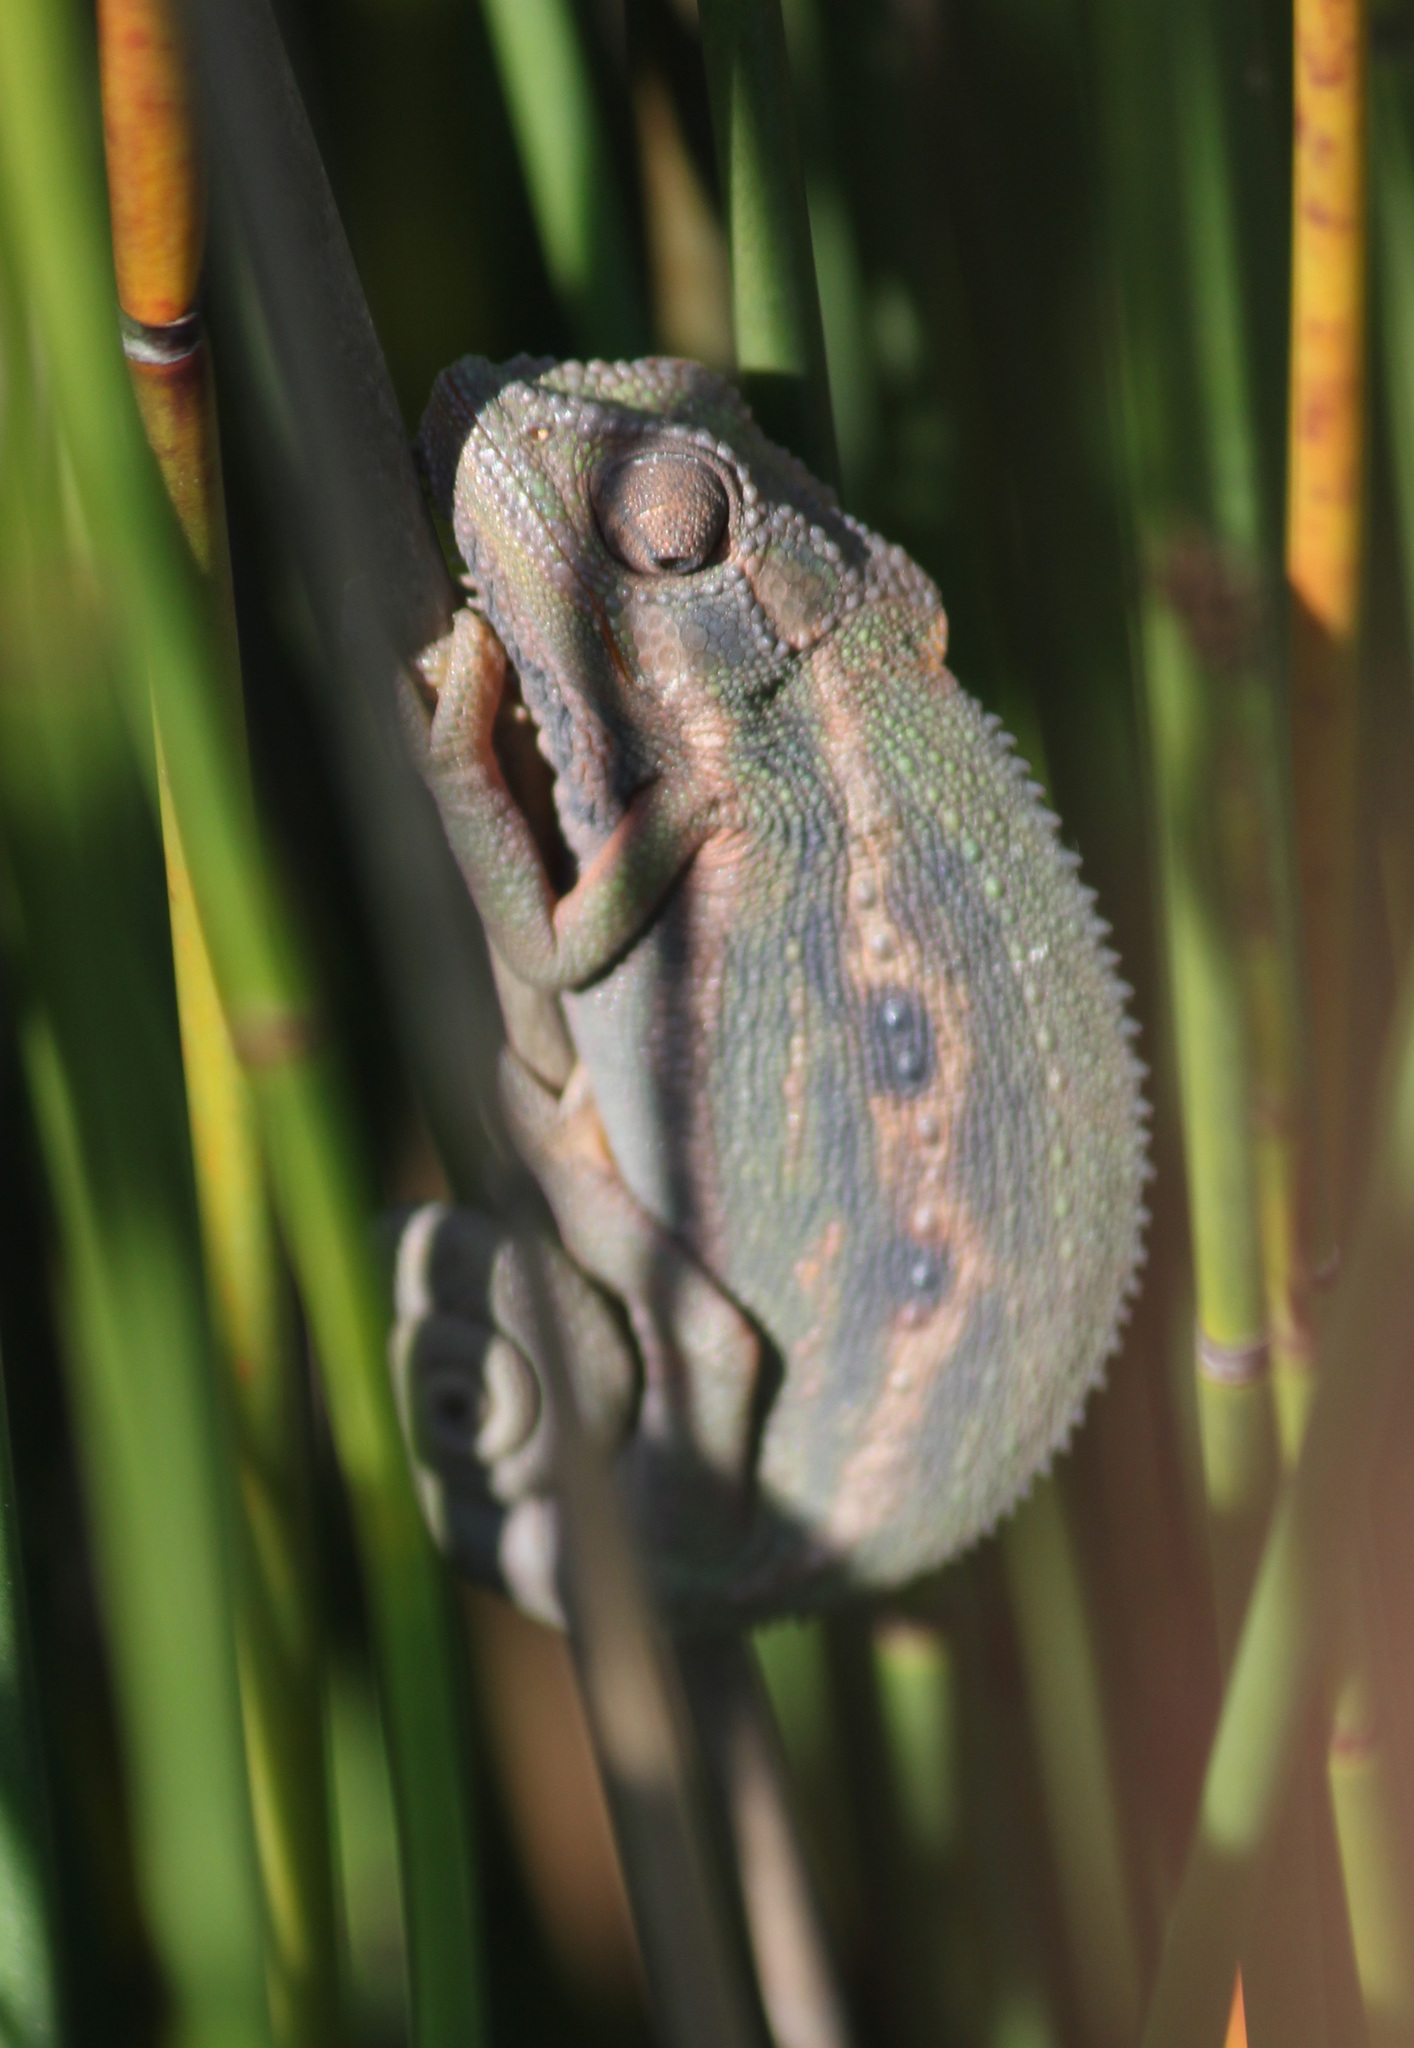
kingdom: Animalia
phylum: Chordata
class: Squamata
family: Chamaeleonidae
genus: Bradypodion
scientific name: Bradypodion pumilum
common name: Cape dwarf chameleon
